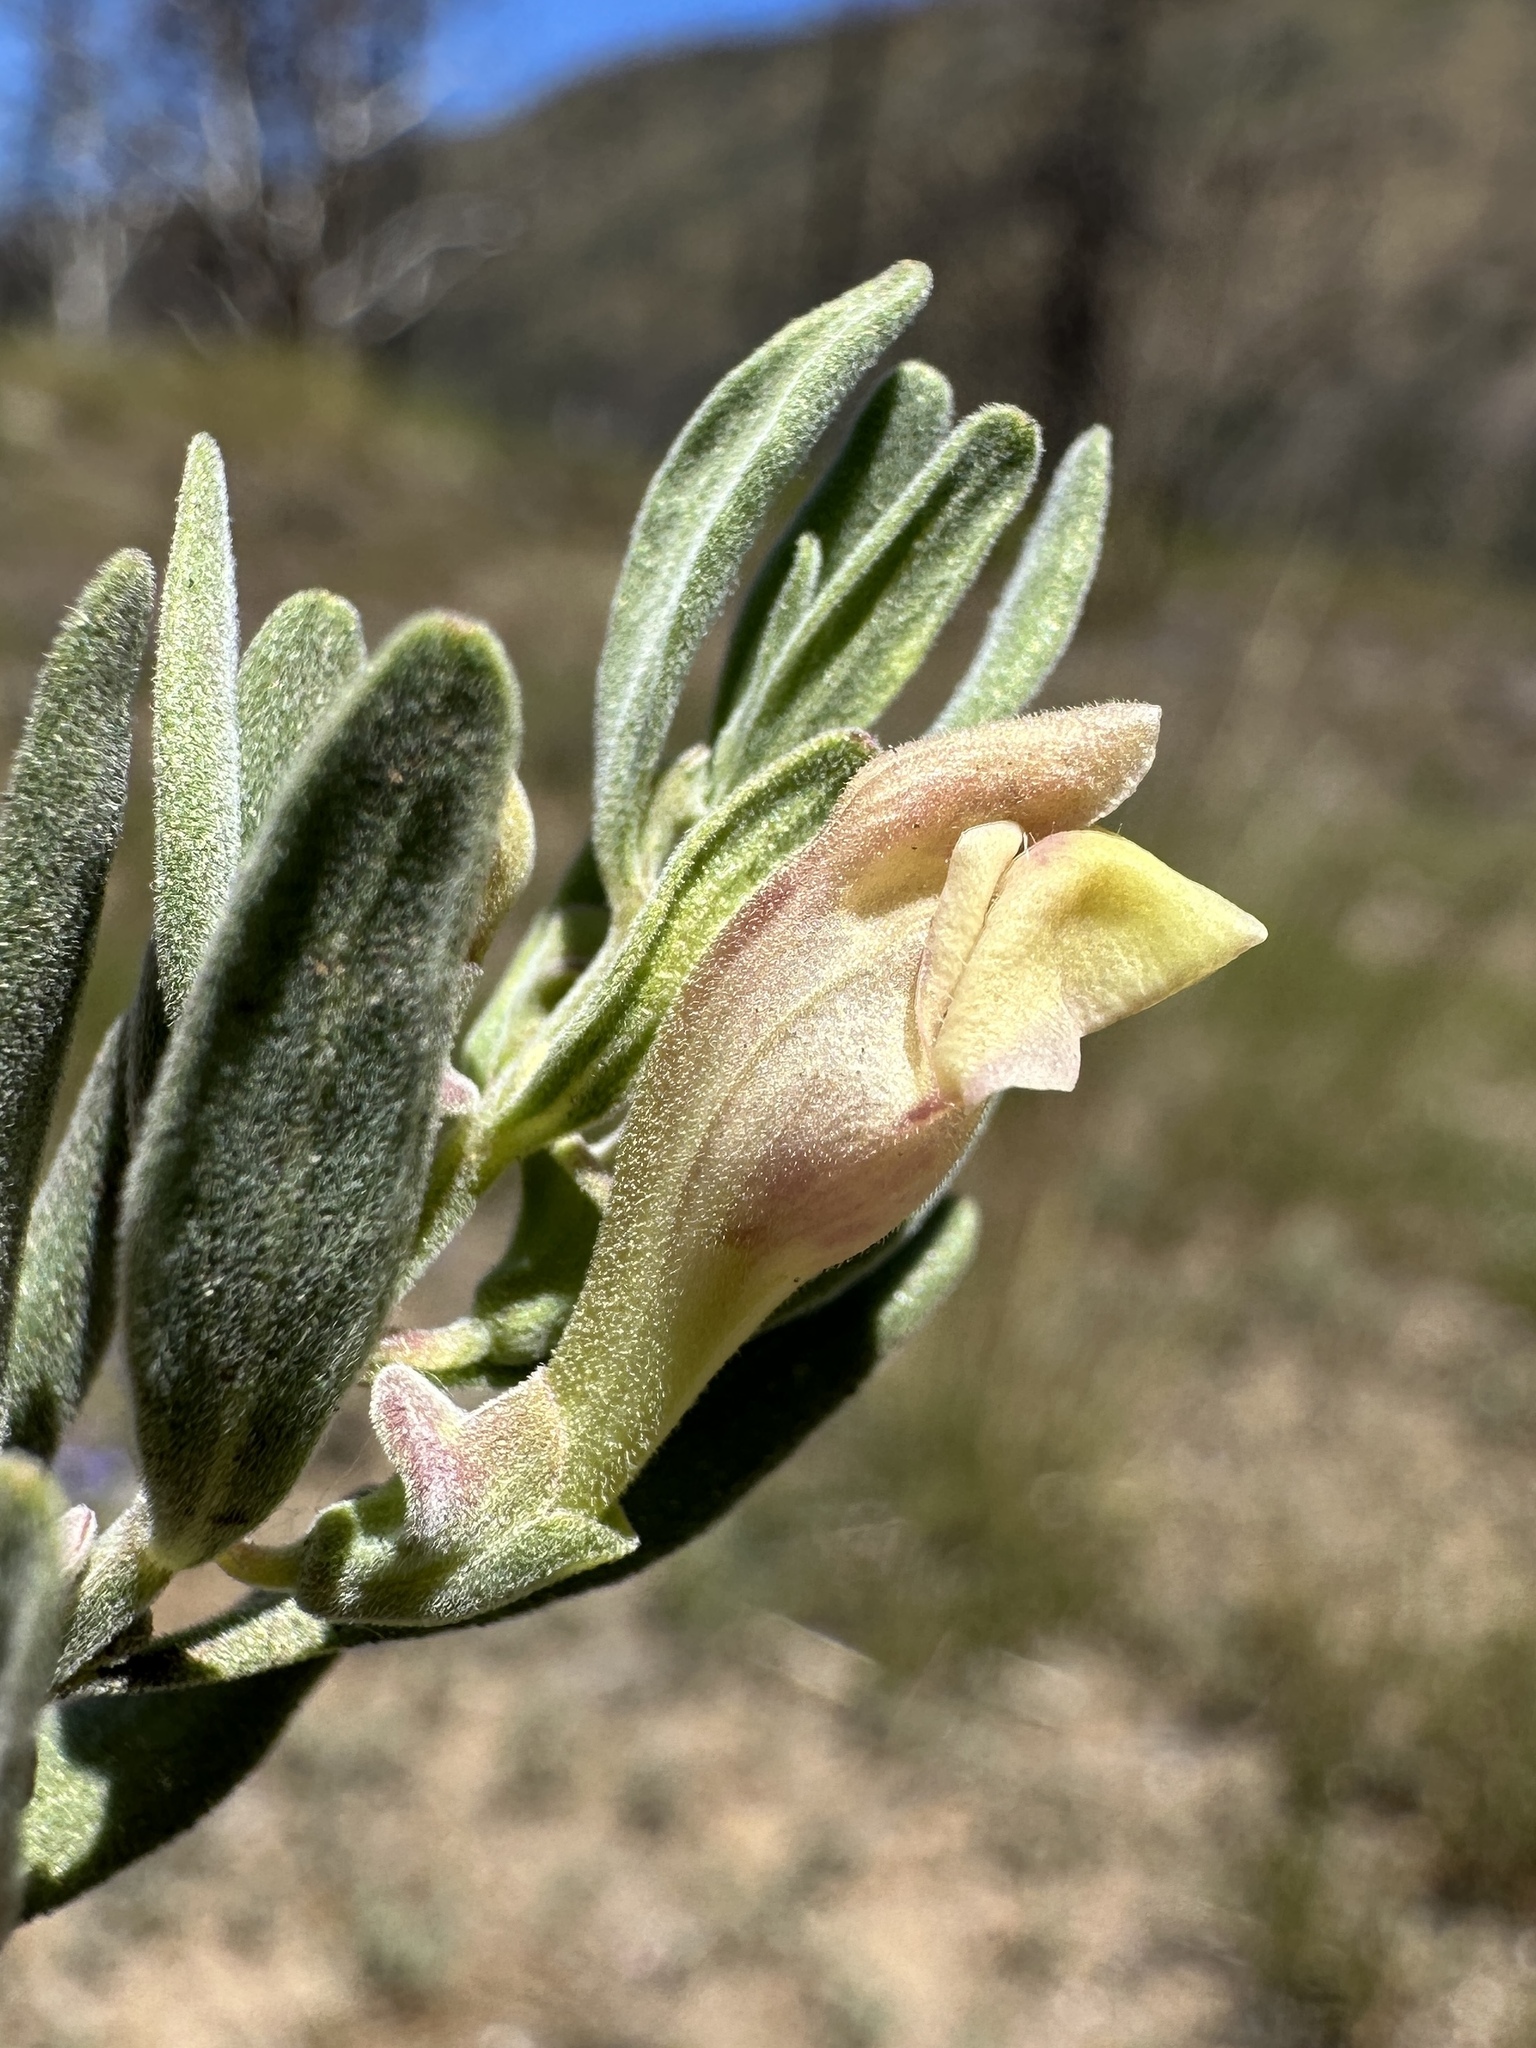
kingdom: Plantae
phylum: Tracheophyta
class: Magnoliopsida
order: Lamiales
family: Lamiaceae
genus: Scutellaria
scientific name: Scutellaria nana
